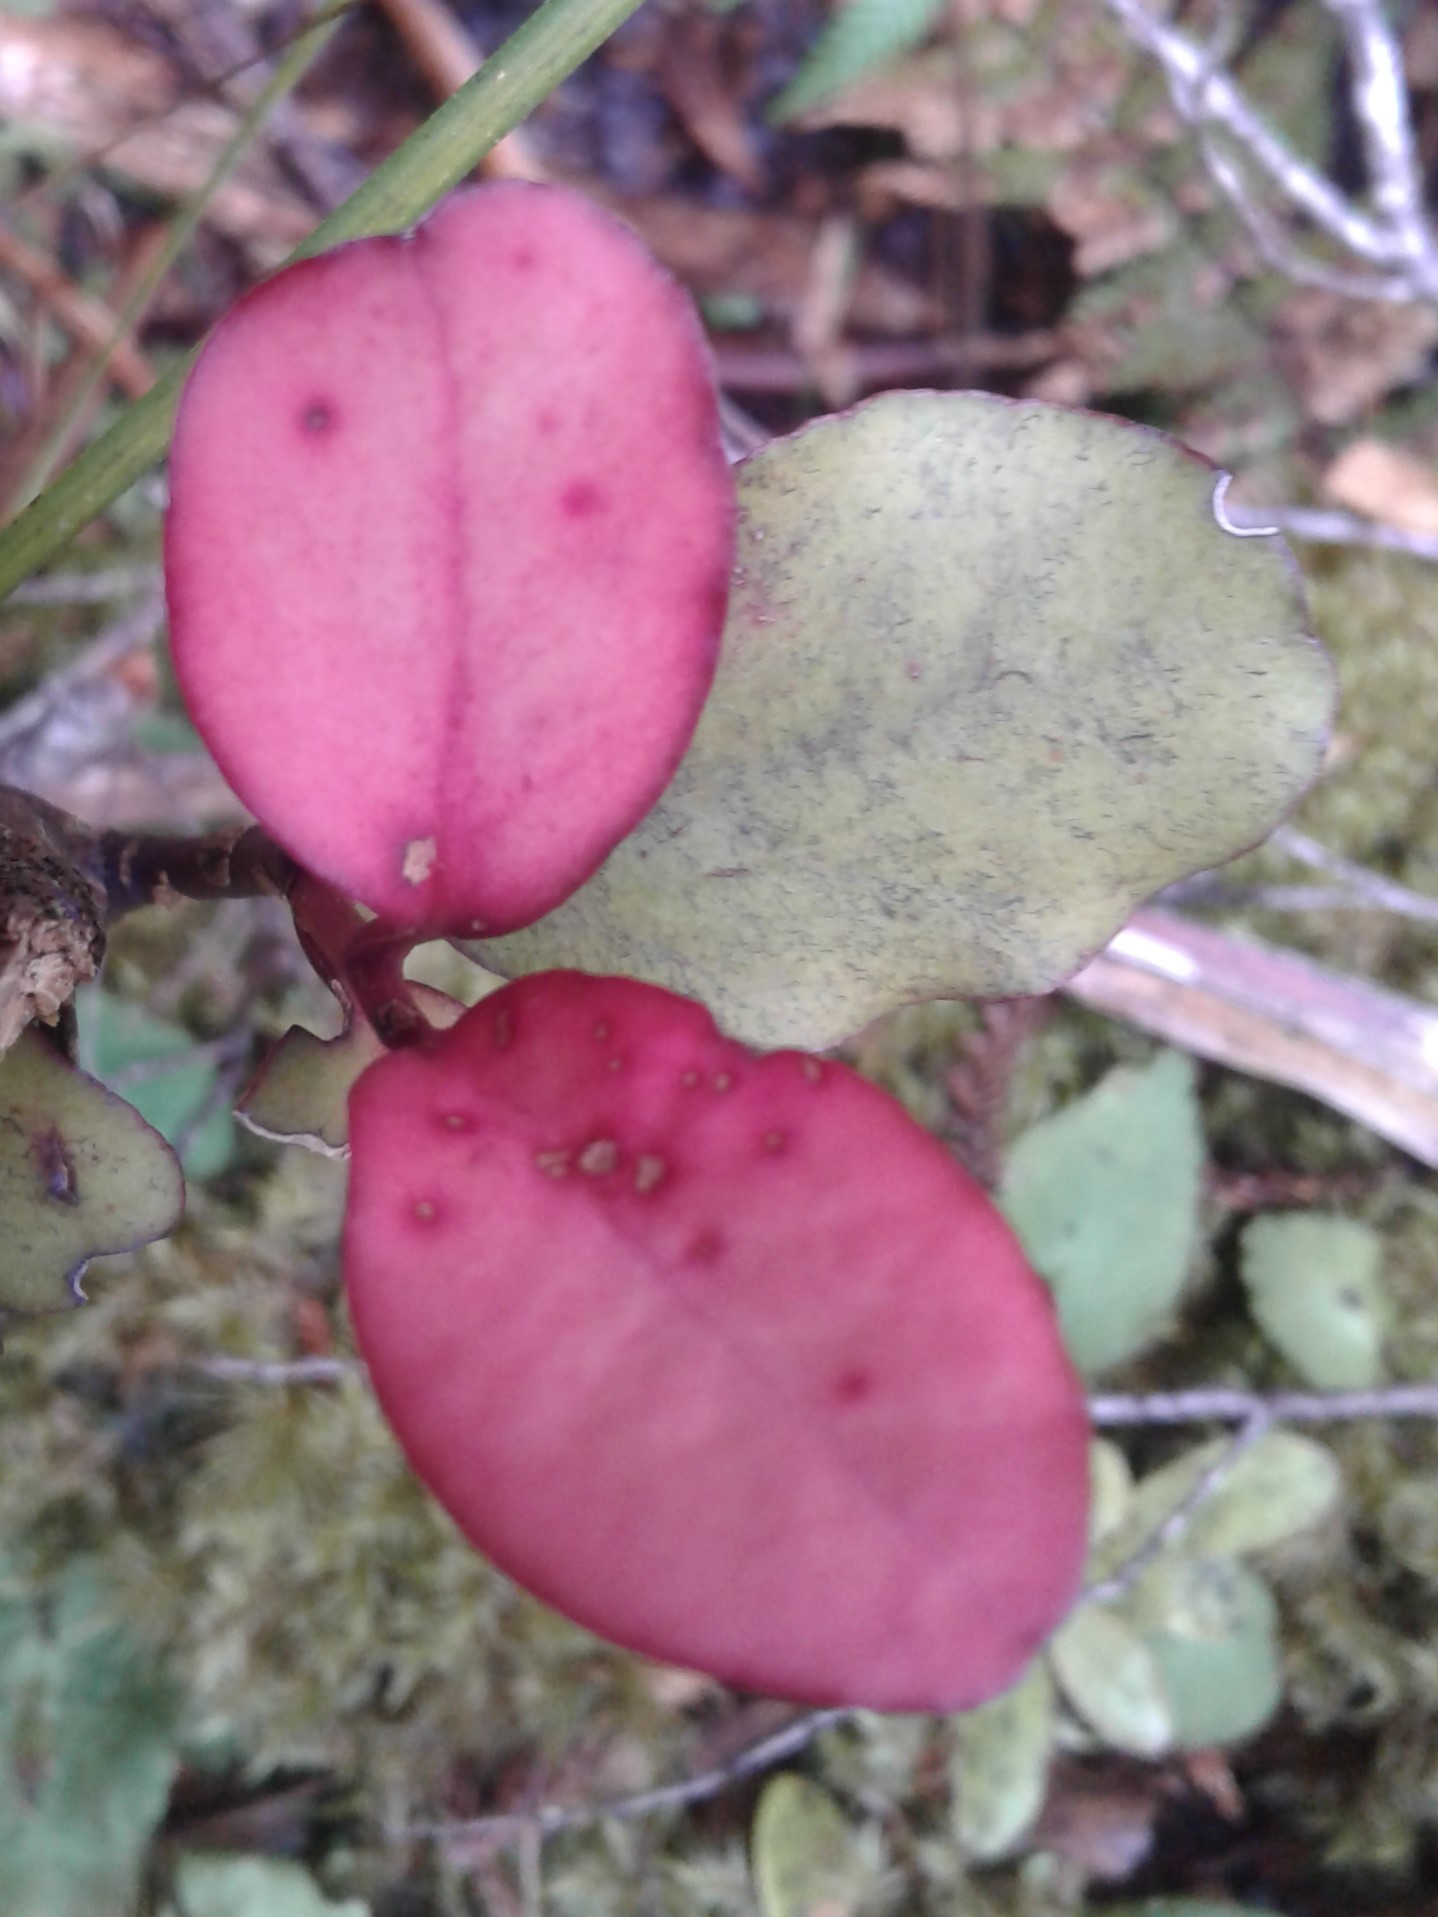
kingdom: Plantae
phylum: Tracheophyta
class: Magnoliopsida
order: Canellales
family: Winteraceae
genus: Pseudowintera
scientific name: Pseudowintera colorata
